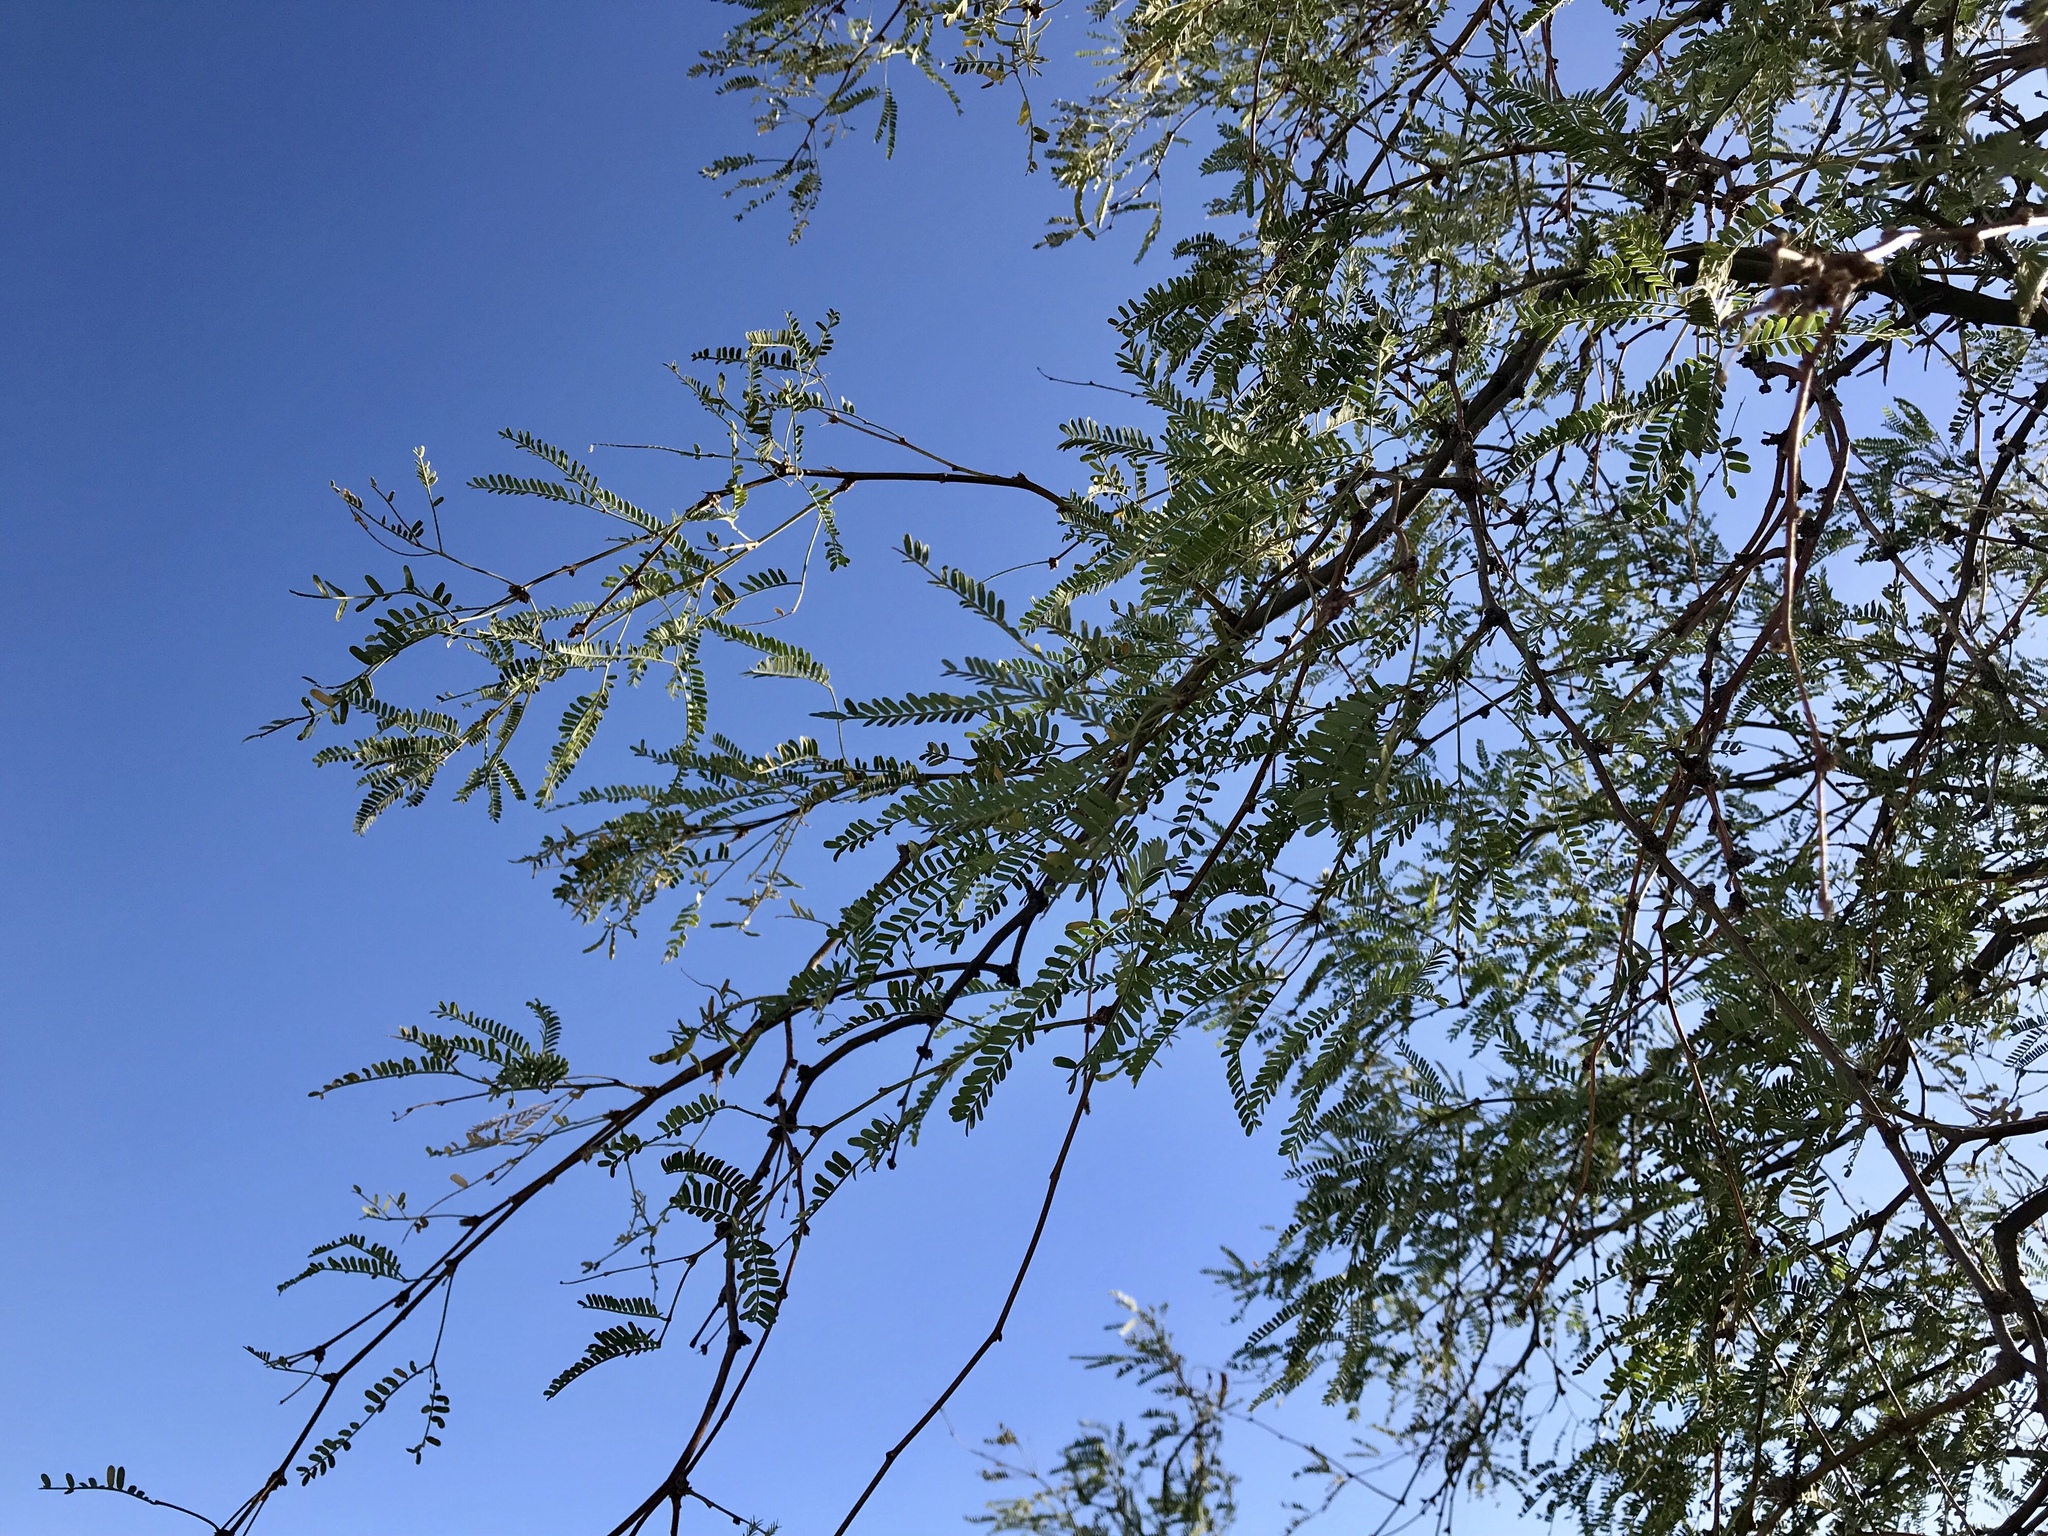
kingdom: Plantae
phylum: Tracheophyta
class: Magnoliopsida
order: Fabales
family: Fabaceae
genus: Prosopis
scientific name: Prosopis glandulosa
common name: Honey mesquite
